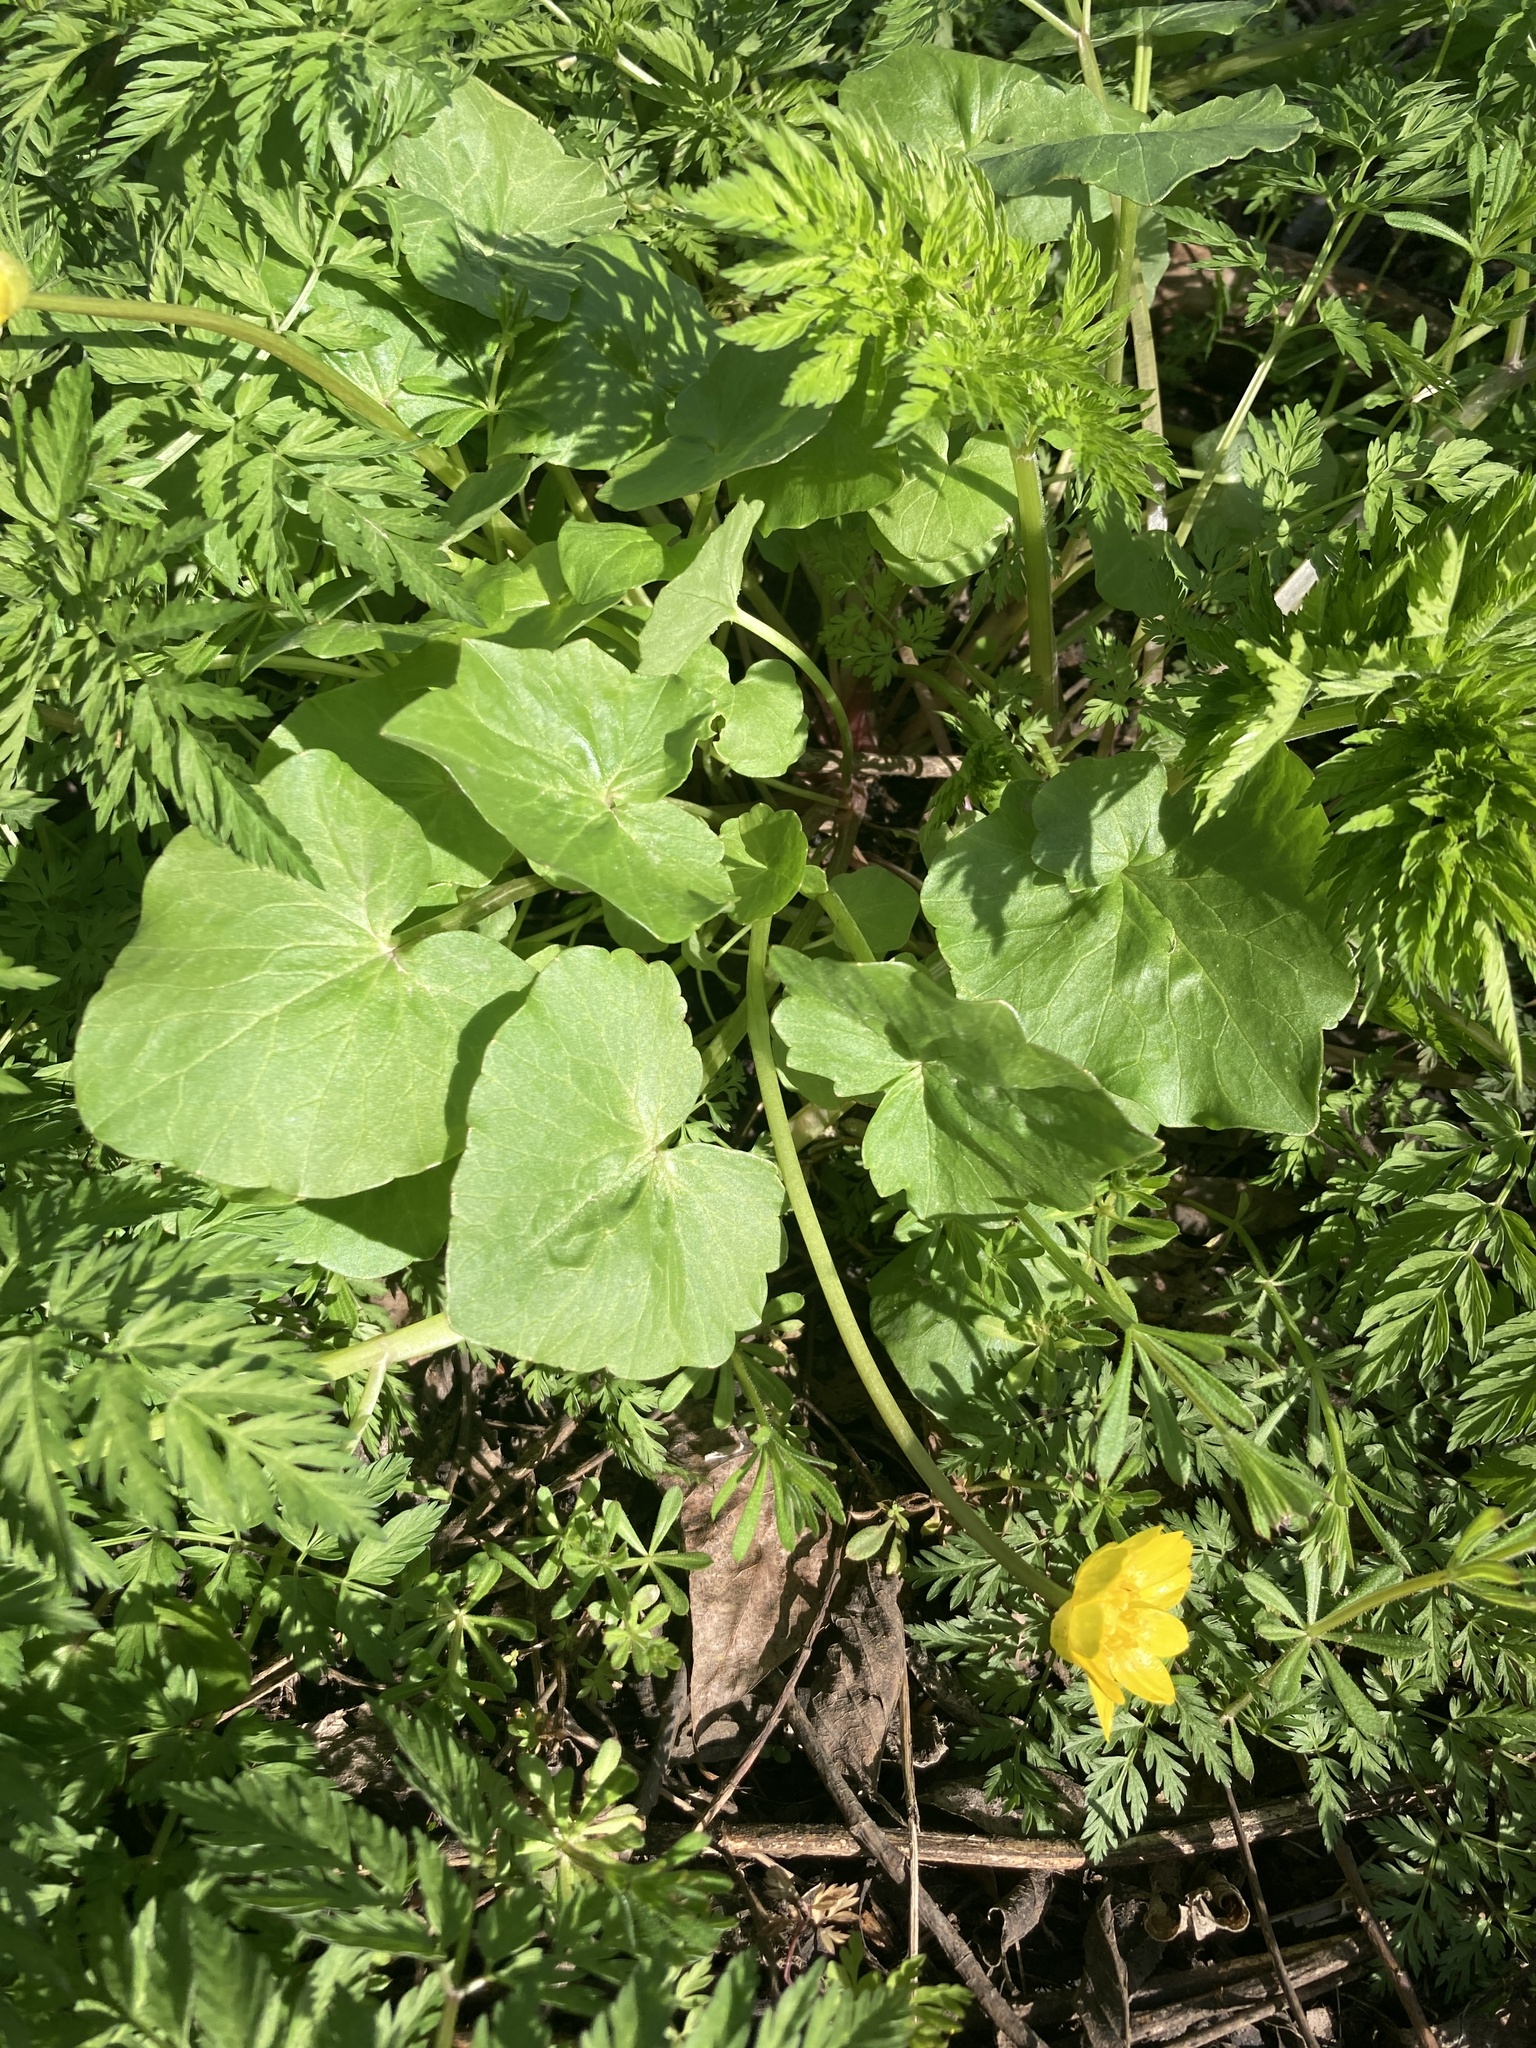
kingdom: Plantae
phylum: Tracheophyta
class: Magnoliopsida
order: Ranunculales
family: Ranunculaceae
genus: Ficaria
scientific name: Ficaria verna
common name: Lesser celandine
